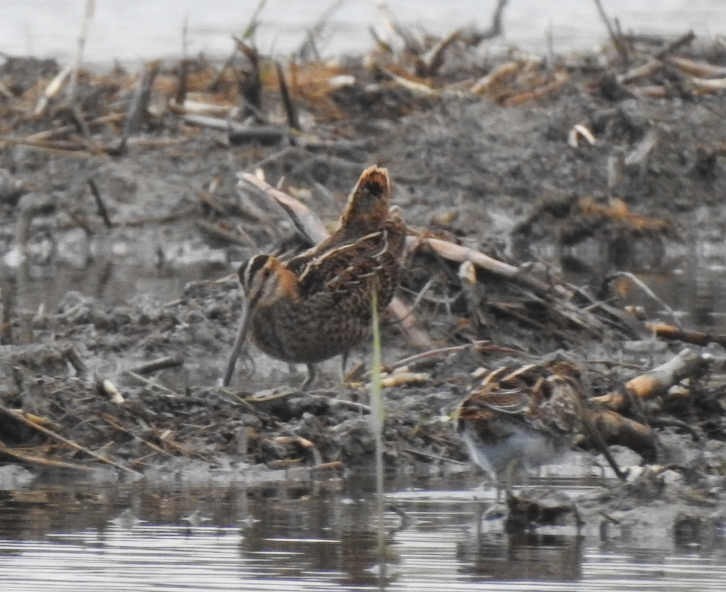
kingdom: Animalia
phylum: Chordata
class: Aves
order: Charadriiformes
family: Scolopacidae
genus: Gallinago
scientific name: Gallinago gallinago
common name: Common snipe
